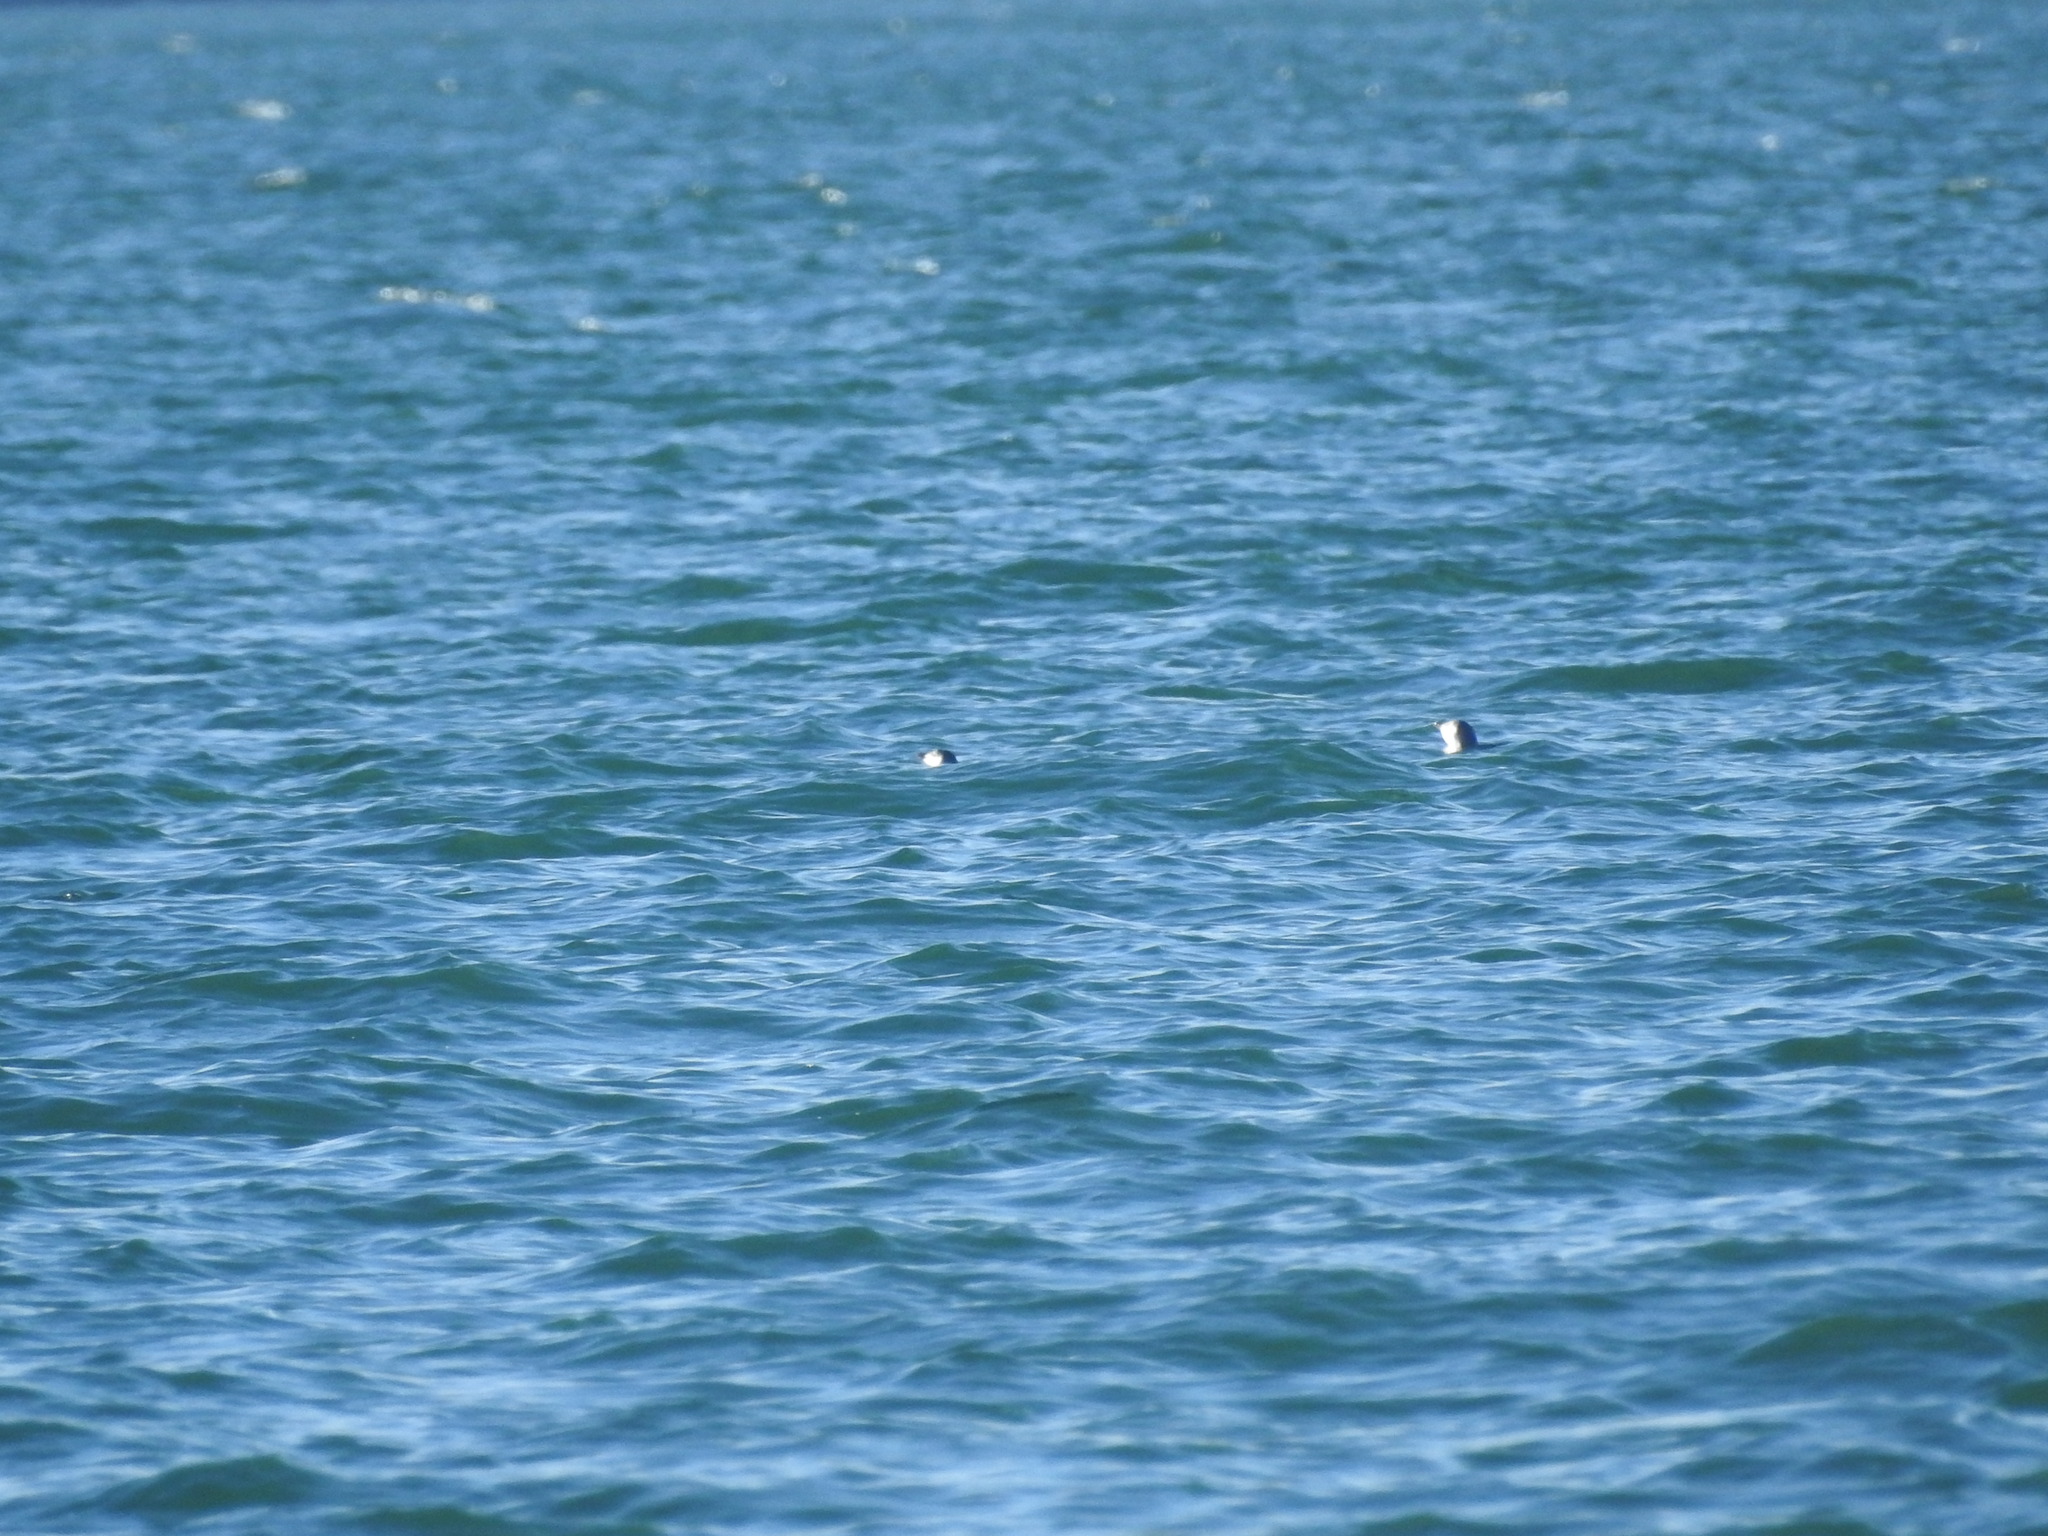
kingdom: Animalia
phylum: Chordata
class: Aves
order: Sphenisciformes
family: Spheniscidae
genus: Eudyptula
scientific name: Eudyptula minor
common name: Little penguin
